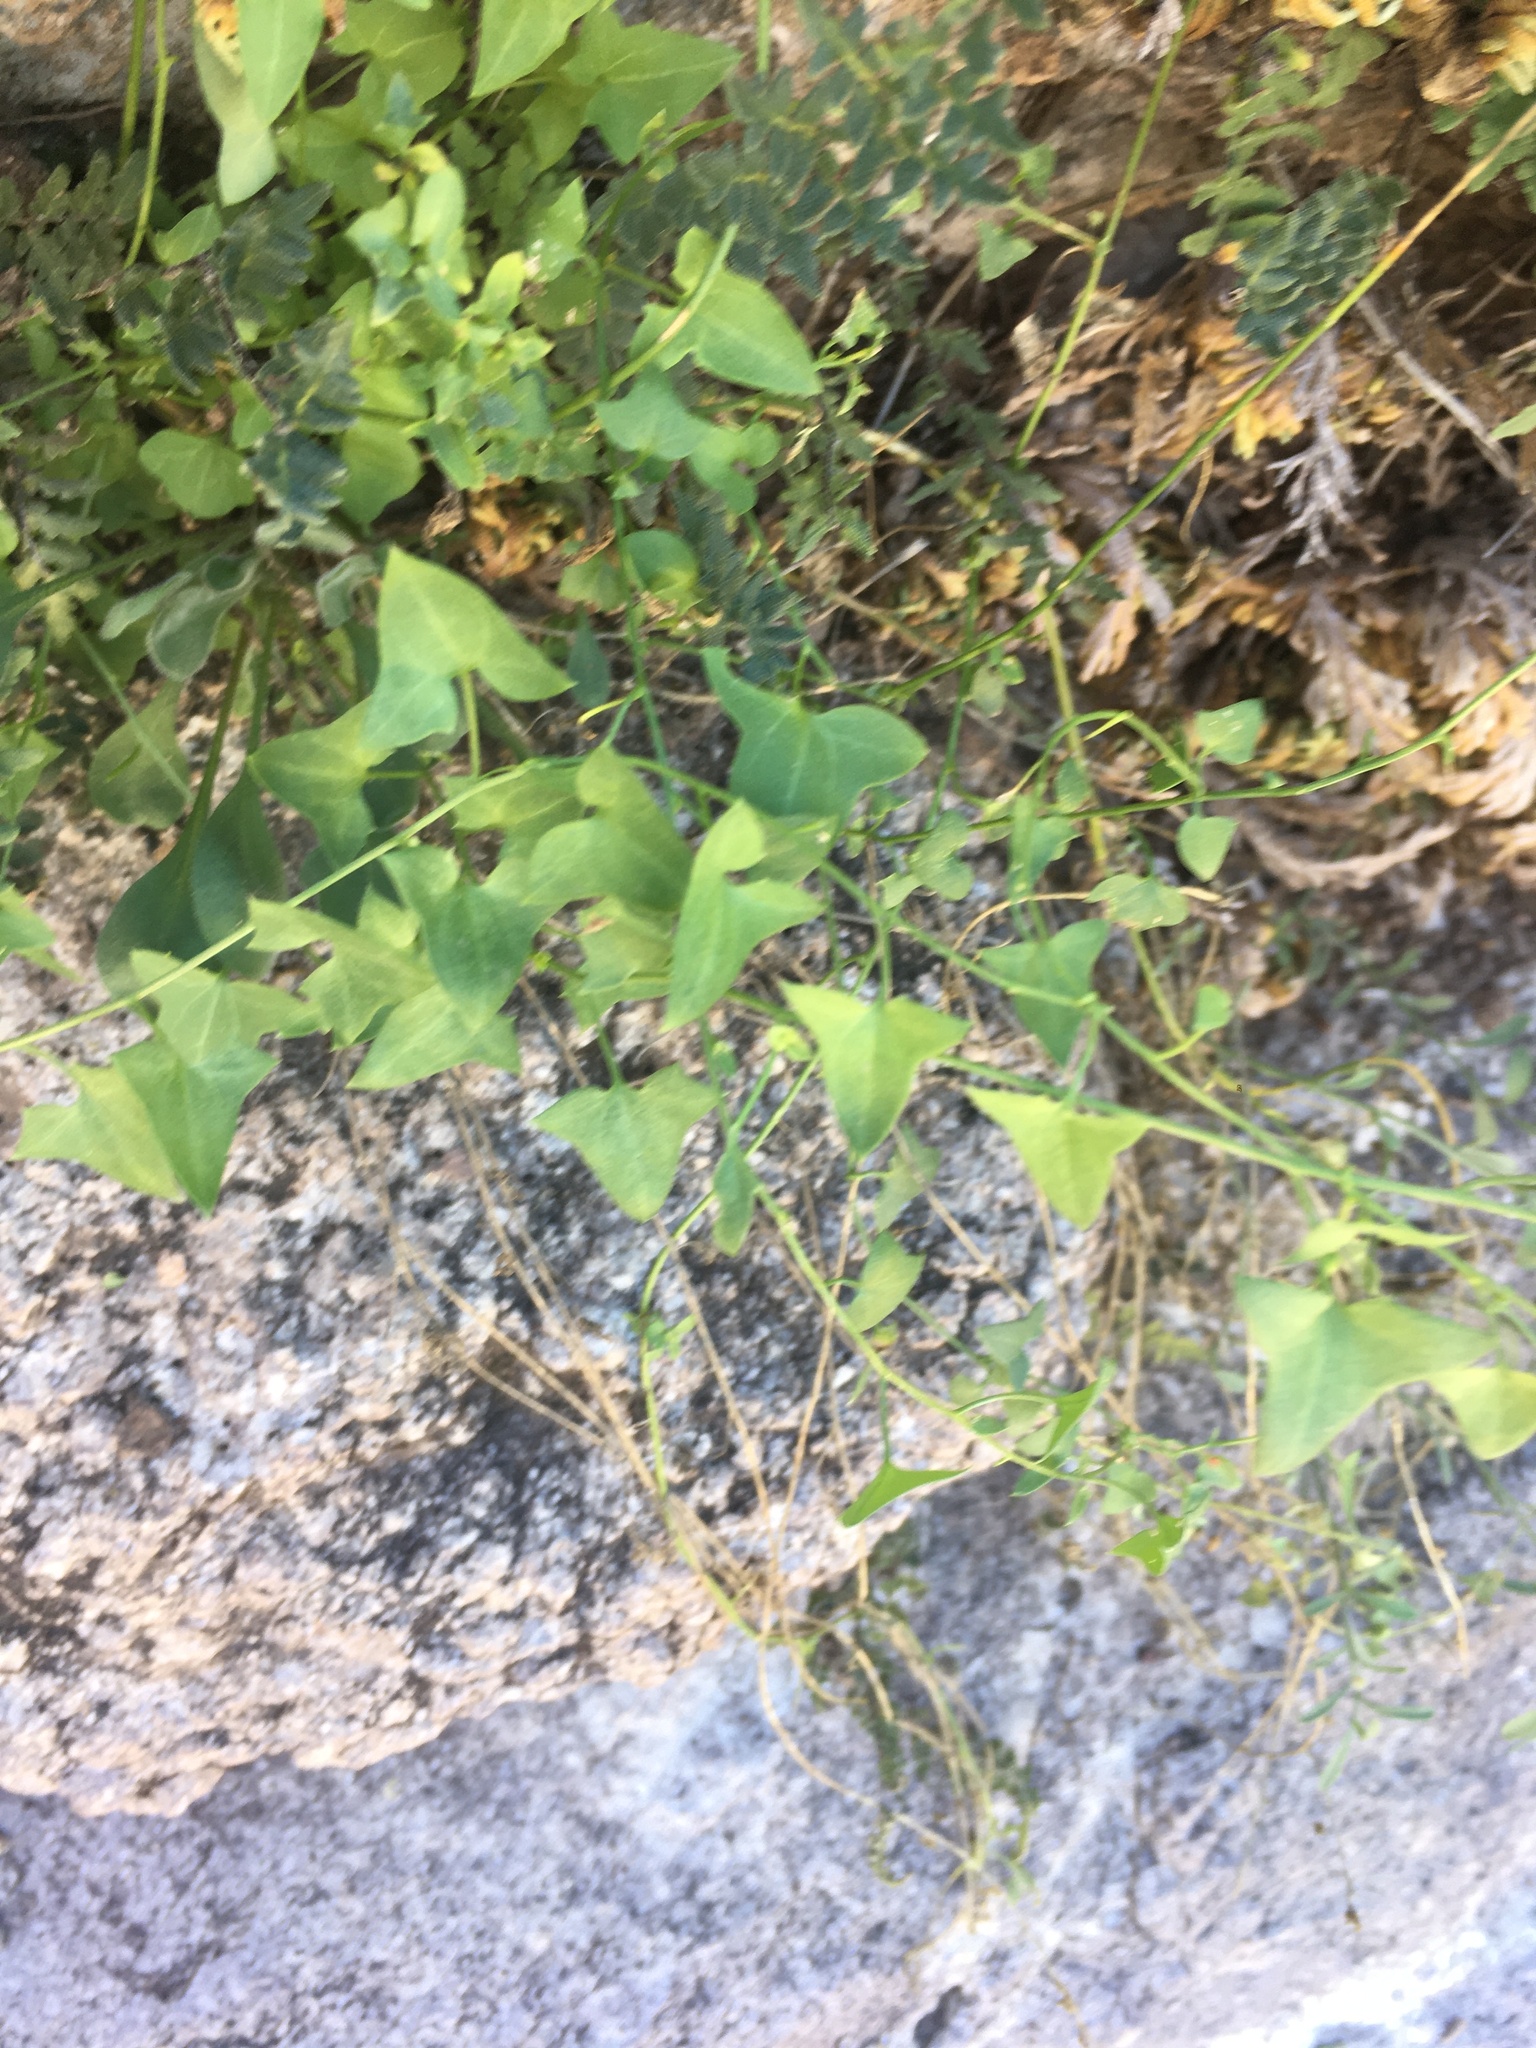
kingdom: Plantae
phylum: Tracheophyta
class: Magnoliopsida
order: Lamiales
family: Plantaginaceae
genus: Maurandella
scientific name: Maurandella antirrhiniflora
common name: Violet twining-snapdragon
